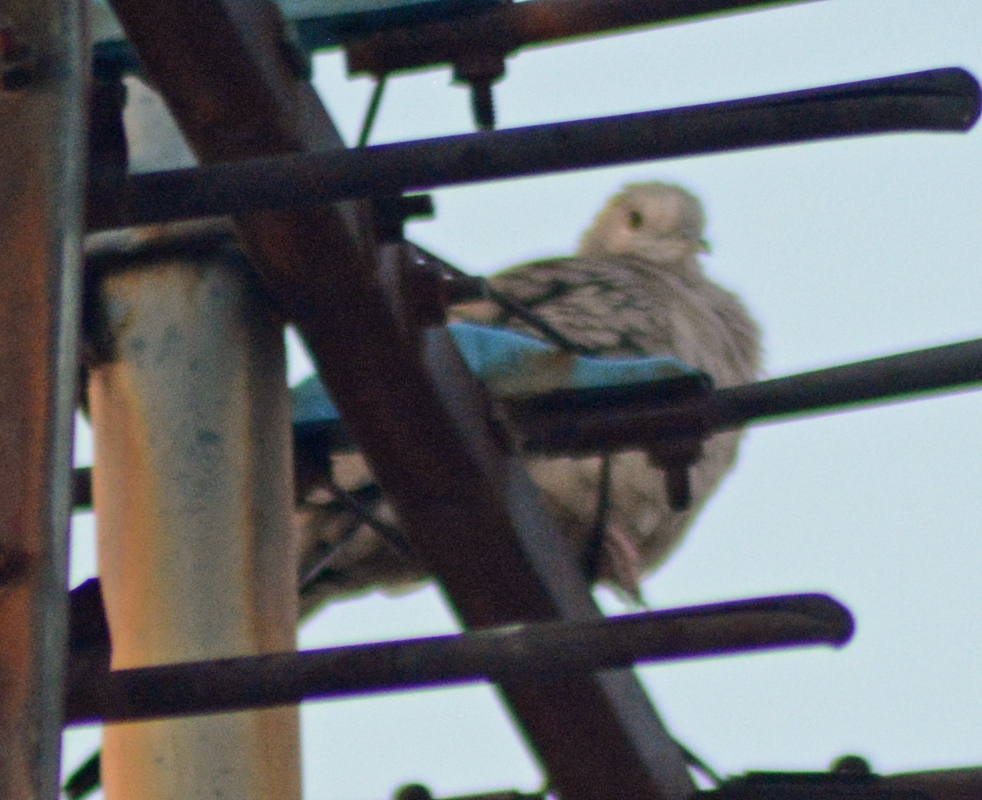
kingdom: Animalia
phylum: Chordata
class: Aves
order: Columbiformes
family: Columbidae
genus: Columbina
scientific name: Columbina inca
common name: Inca dove
